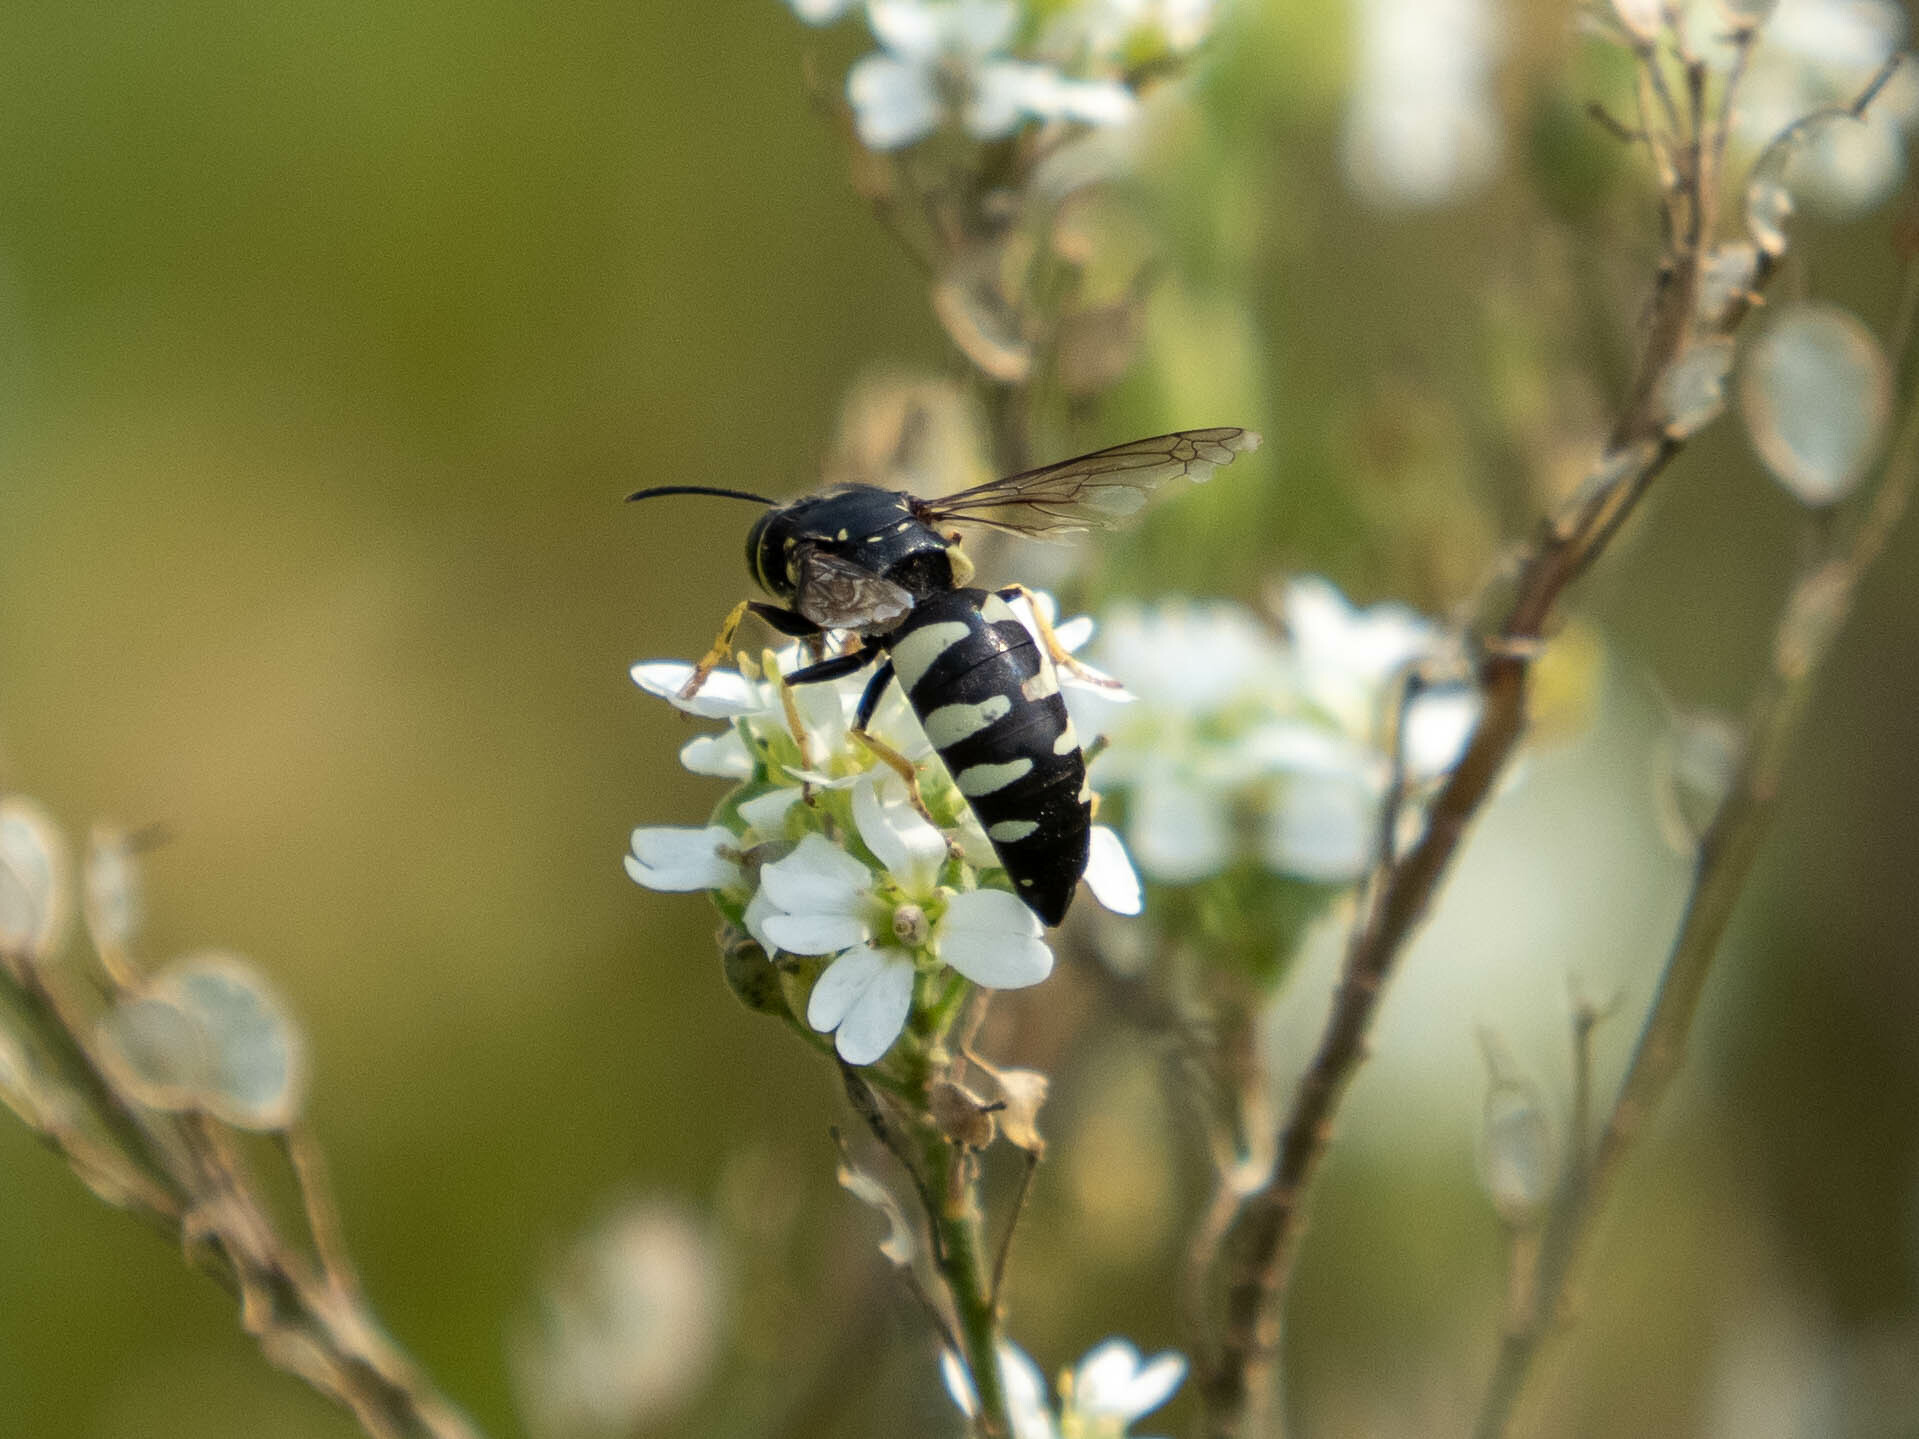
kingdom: Animalia
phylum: Arthropoda
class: Insecta
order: Hymenoptera
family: Crabronidae
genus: Bicyrtes
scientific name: Bicyrtes quadrifasciatus
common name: Four-banded stink bug hunter wasp
